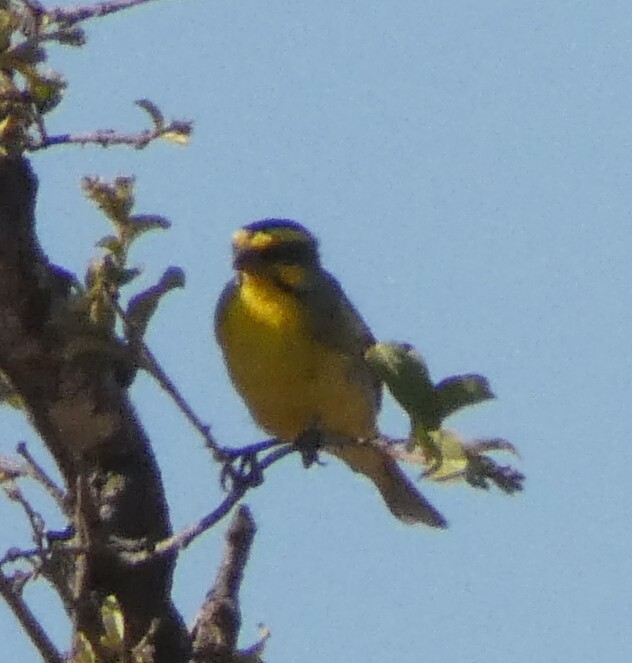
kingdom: Animalia
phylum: Chordata
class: Aves
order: Passeriformes
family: Fringillidae
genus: Crithagra
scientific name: Crithagra mozambica
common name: Yellow-fronted canary
